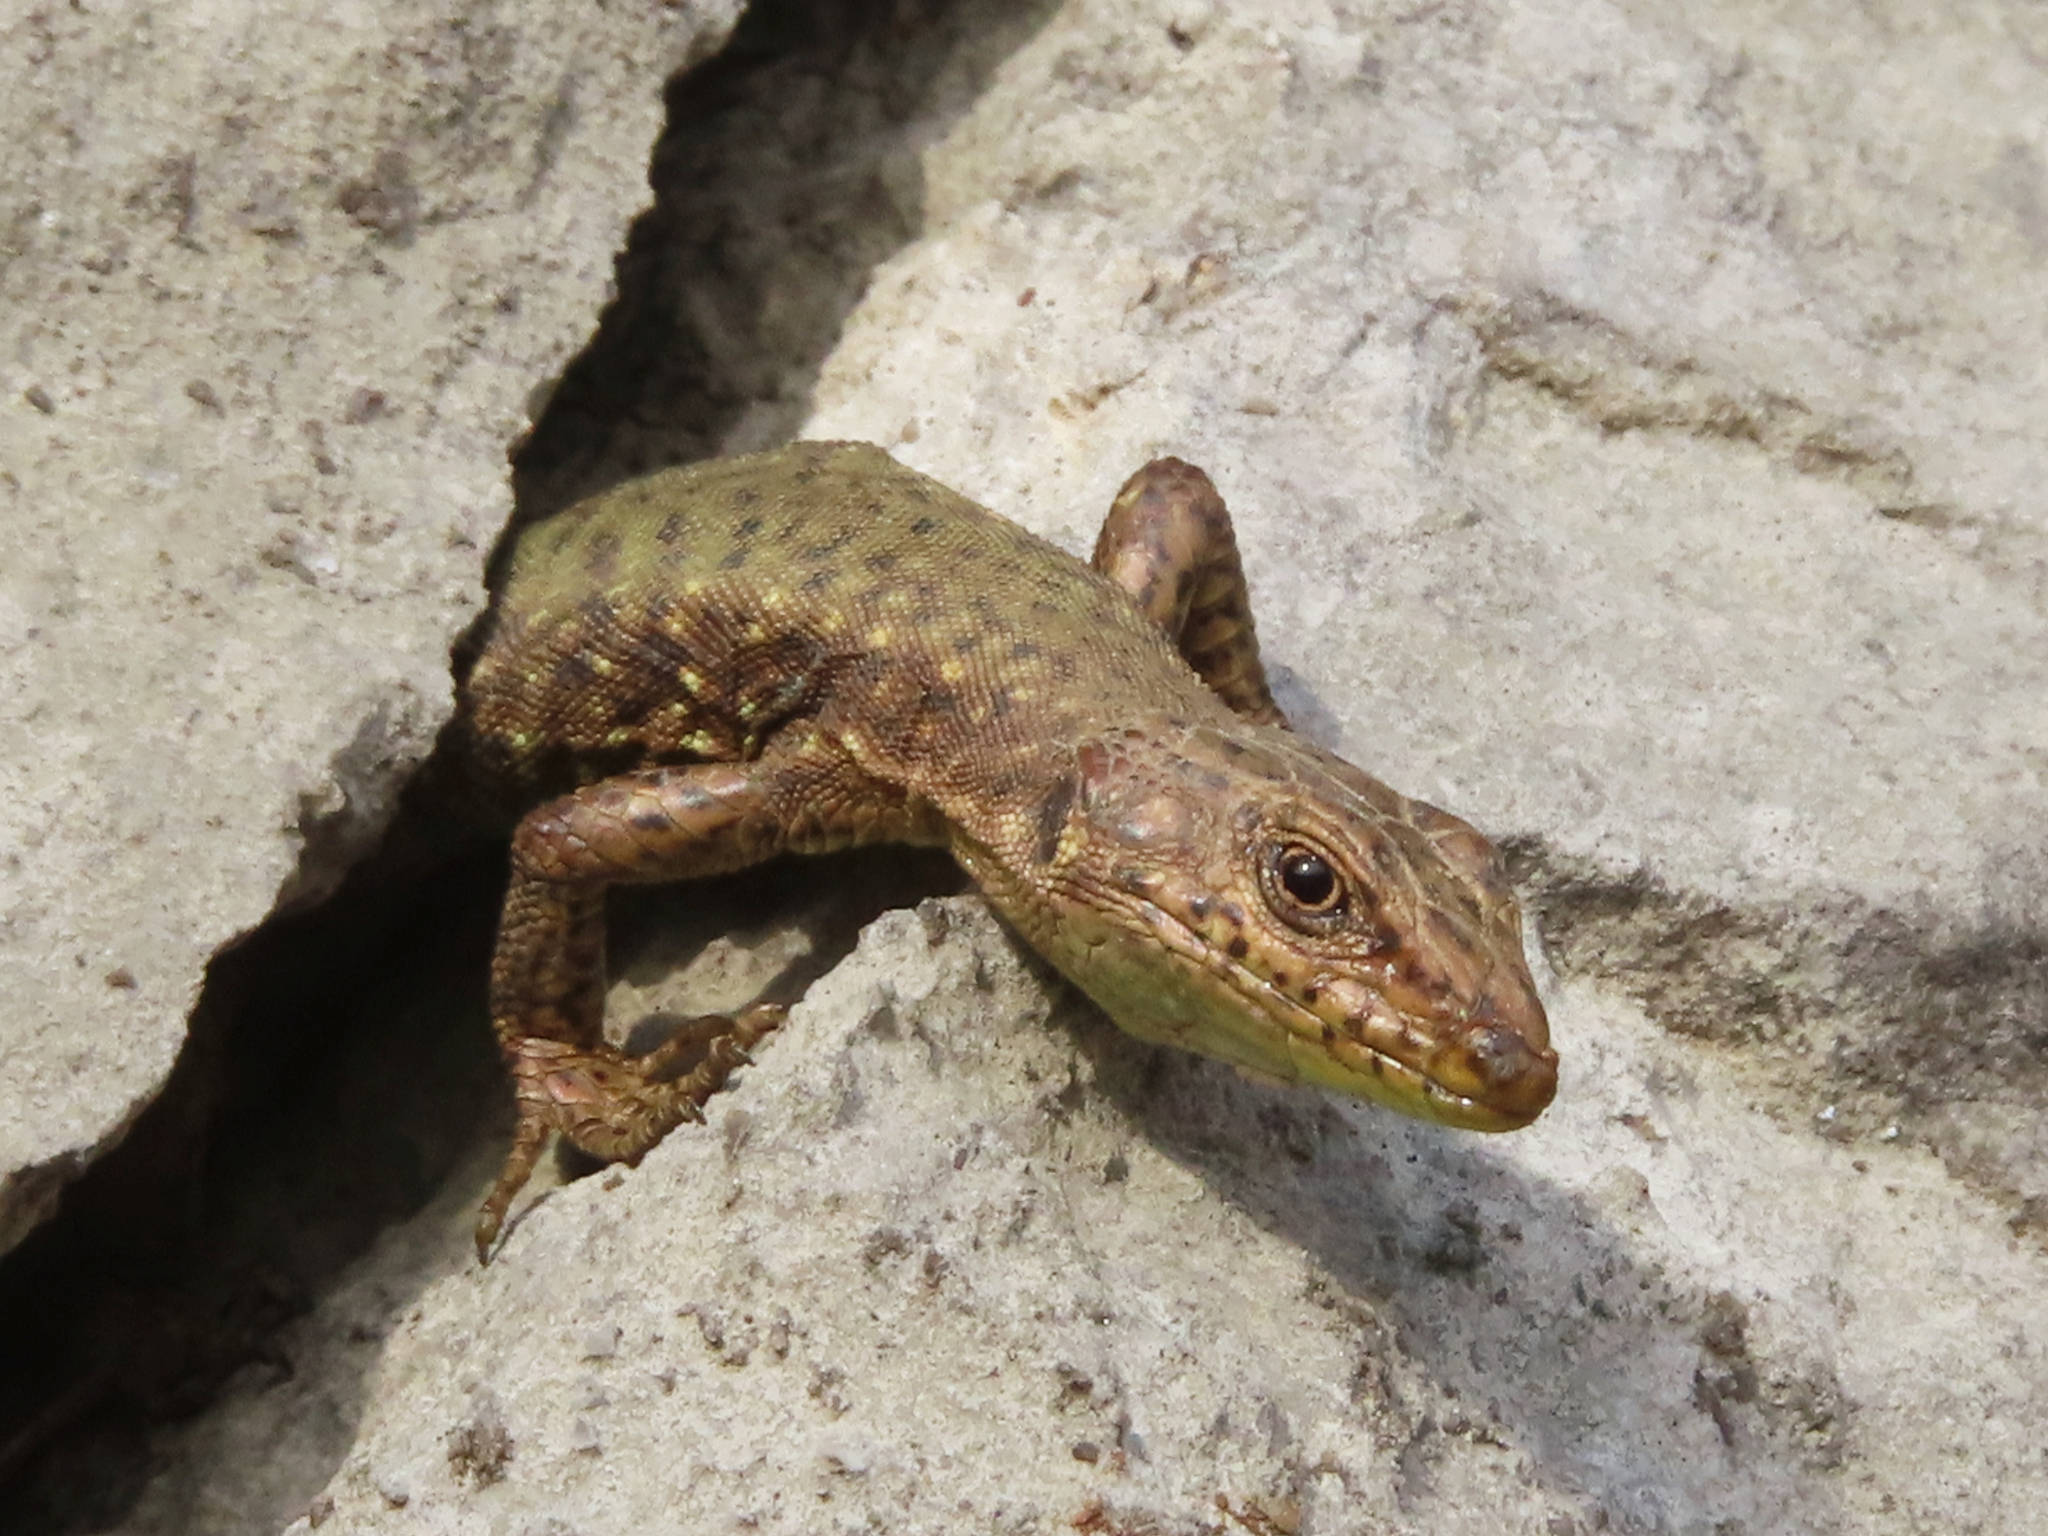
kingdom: Animalia
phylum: Chordata
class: Squamata
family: Lacertidae
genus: Darevskia
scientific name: Darevskia bithynica
